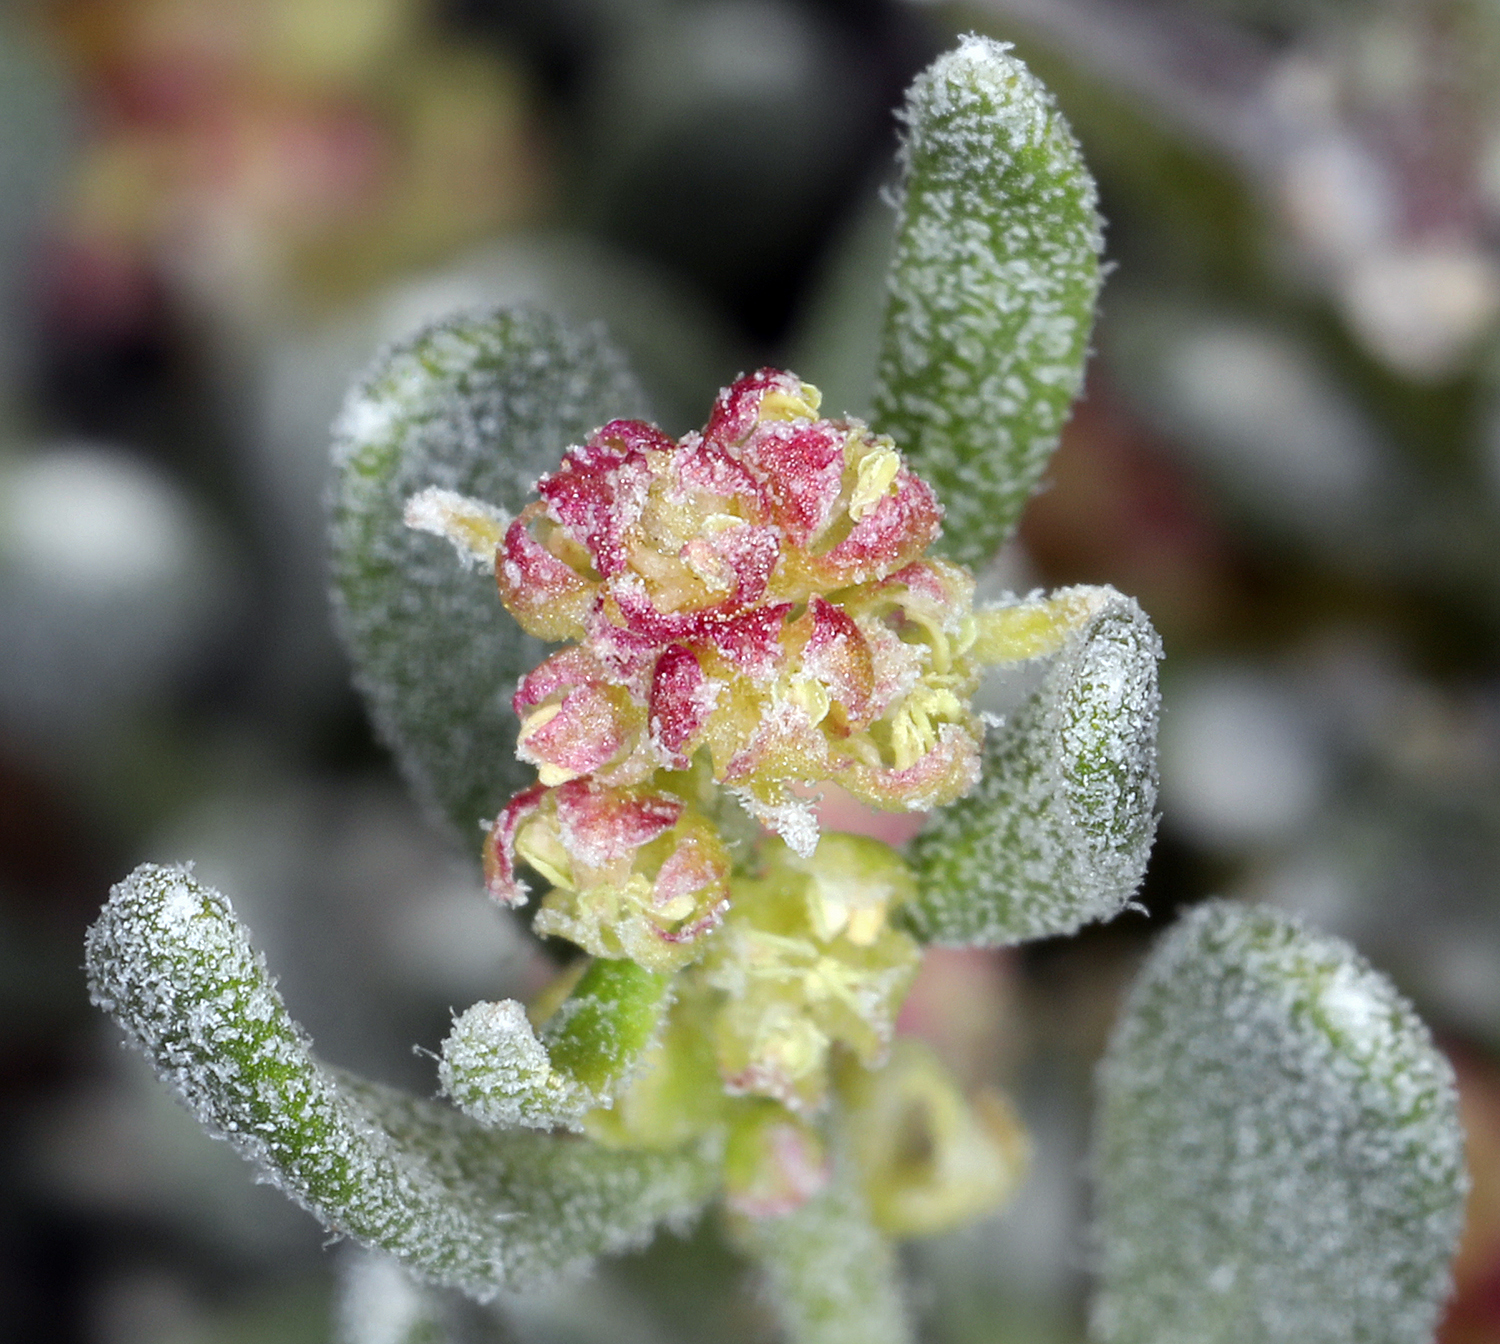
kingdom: Plantae
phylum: Tracheophyta
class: Magnoliopsida
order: Caryophyllales
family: Amaranthaceae
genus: Grayia
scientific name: Grayia spinosa
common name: Spiny hopsage
